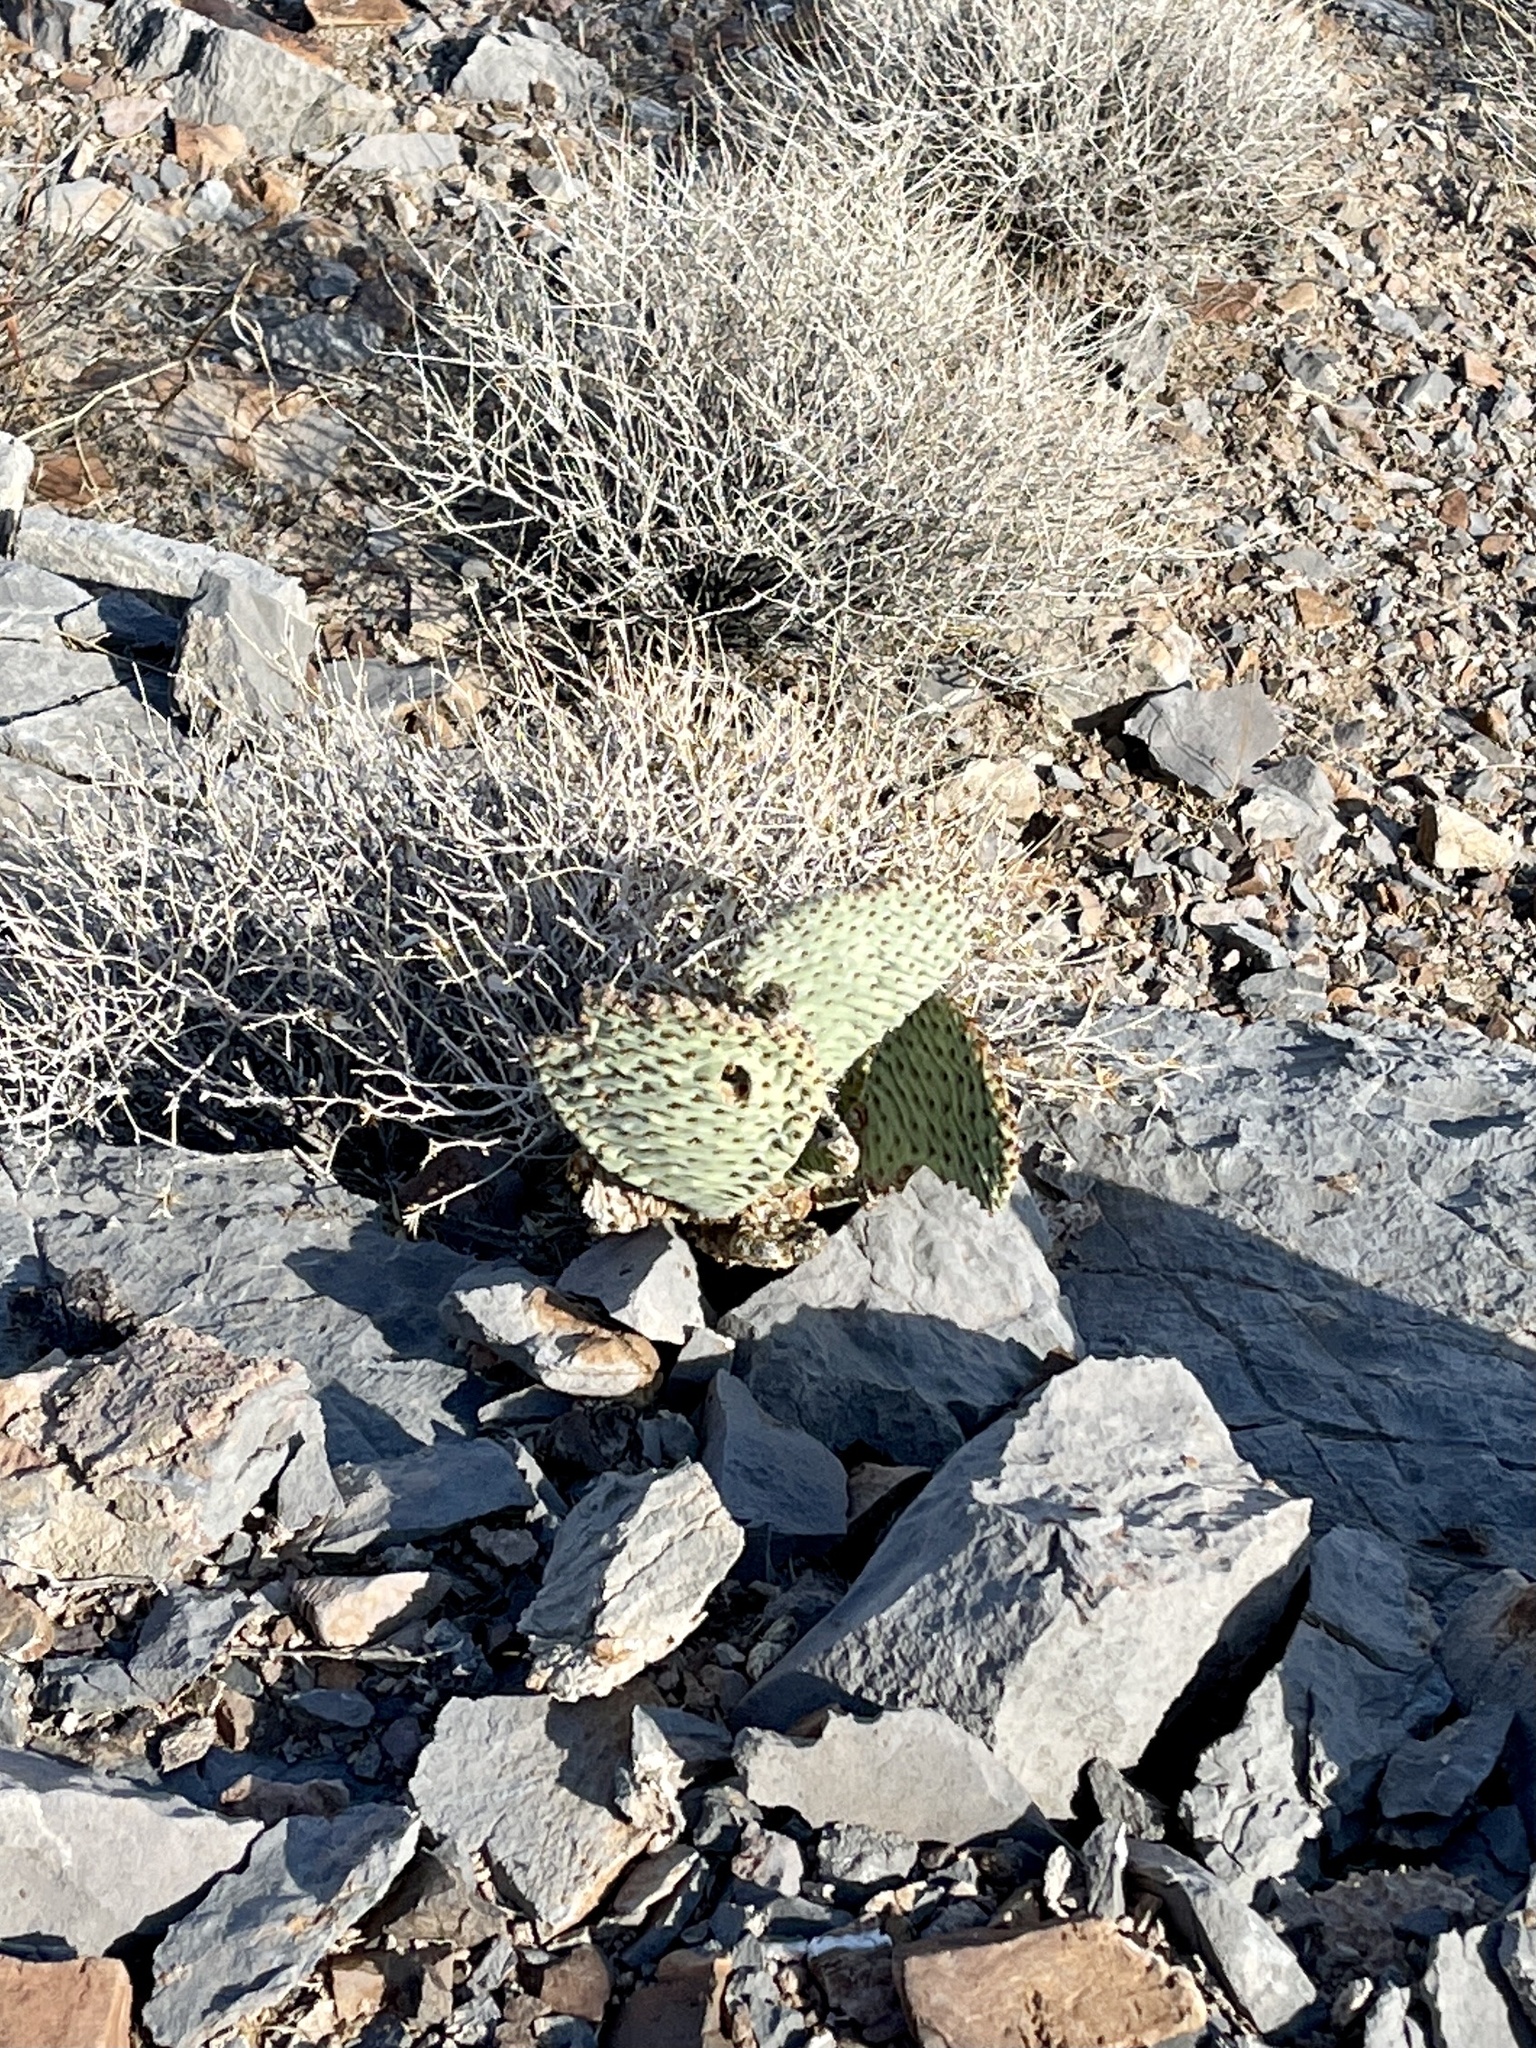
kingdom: Plantae
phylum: Tracheophyta
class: Magnoliopsida
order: Caryophyllales
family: Cactaceae
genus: Opuntia
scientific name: Opuntia basilaris
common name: Beavertail prickly-pear
